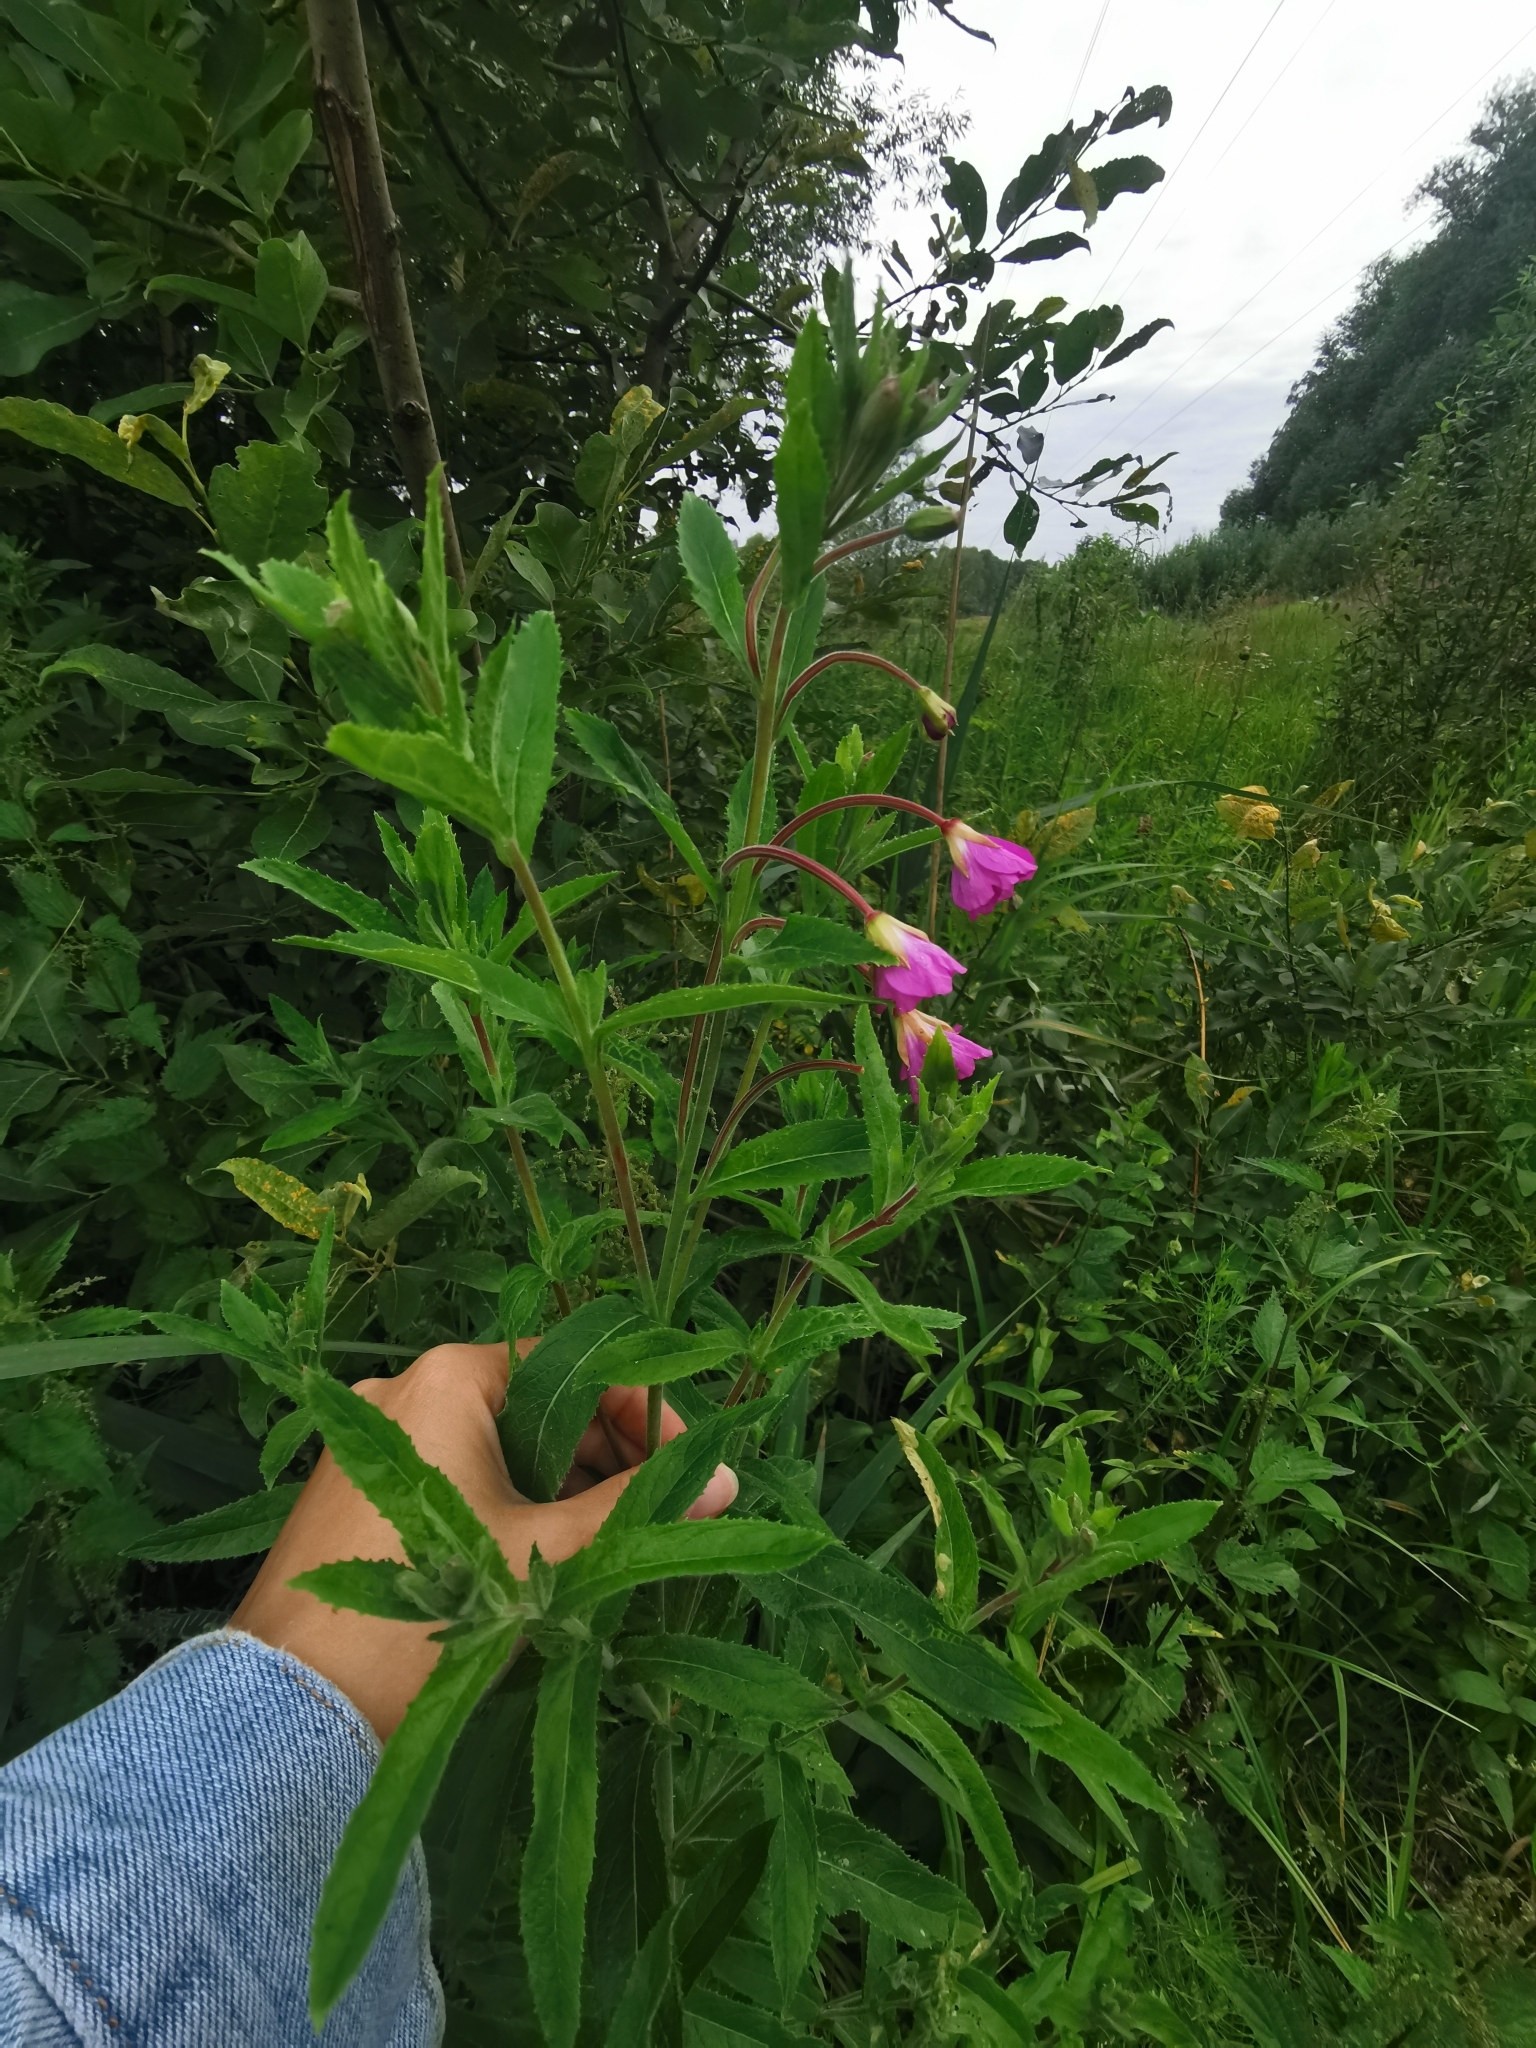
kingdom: Plantae
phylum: Tracheophyta
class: Magnoliopsida
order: Myrtales
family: Onagraceae
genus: Epilobium
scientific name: Epilobium hirsutum
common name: Great willowherb
